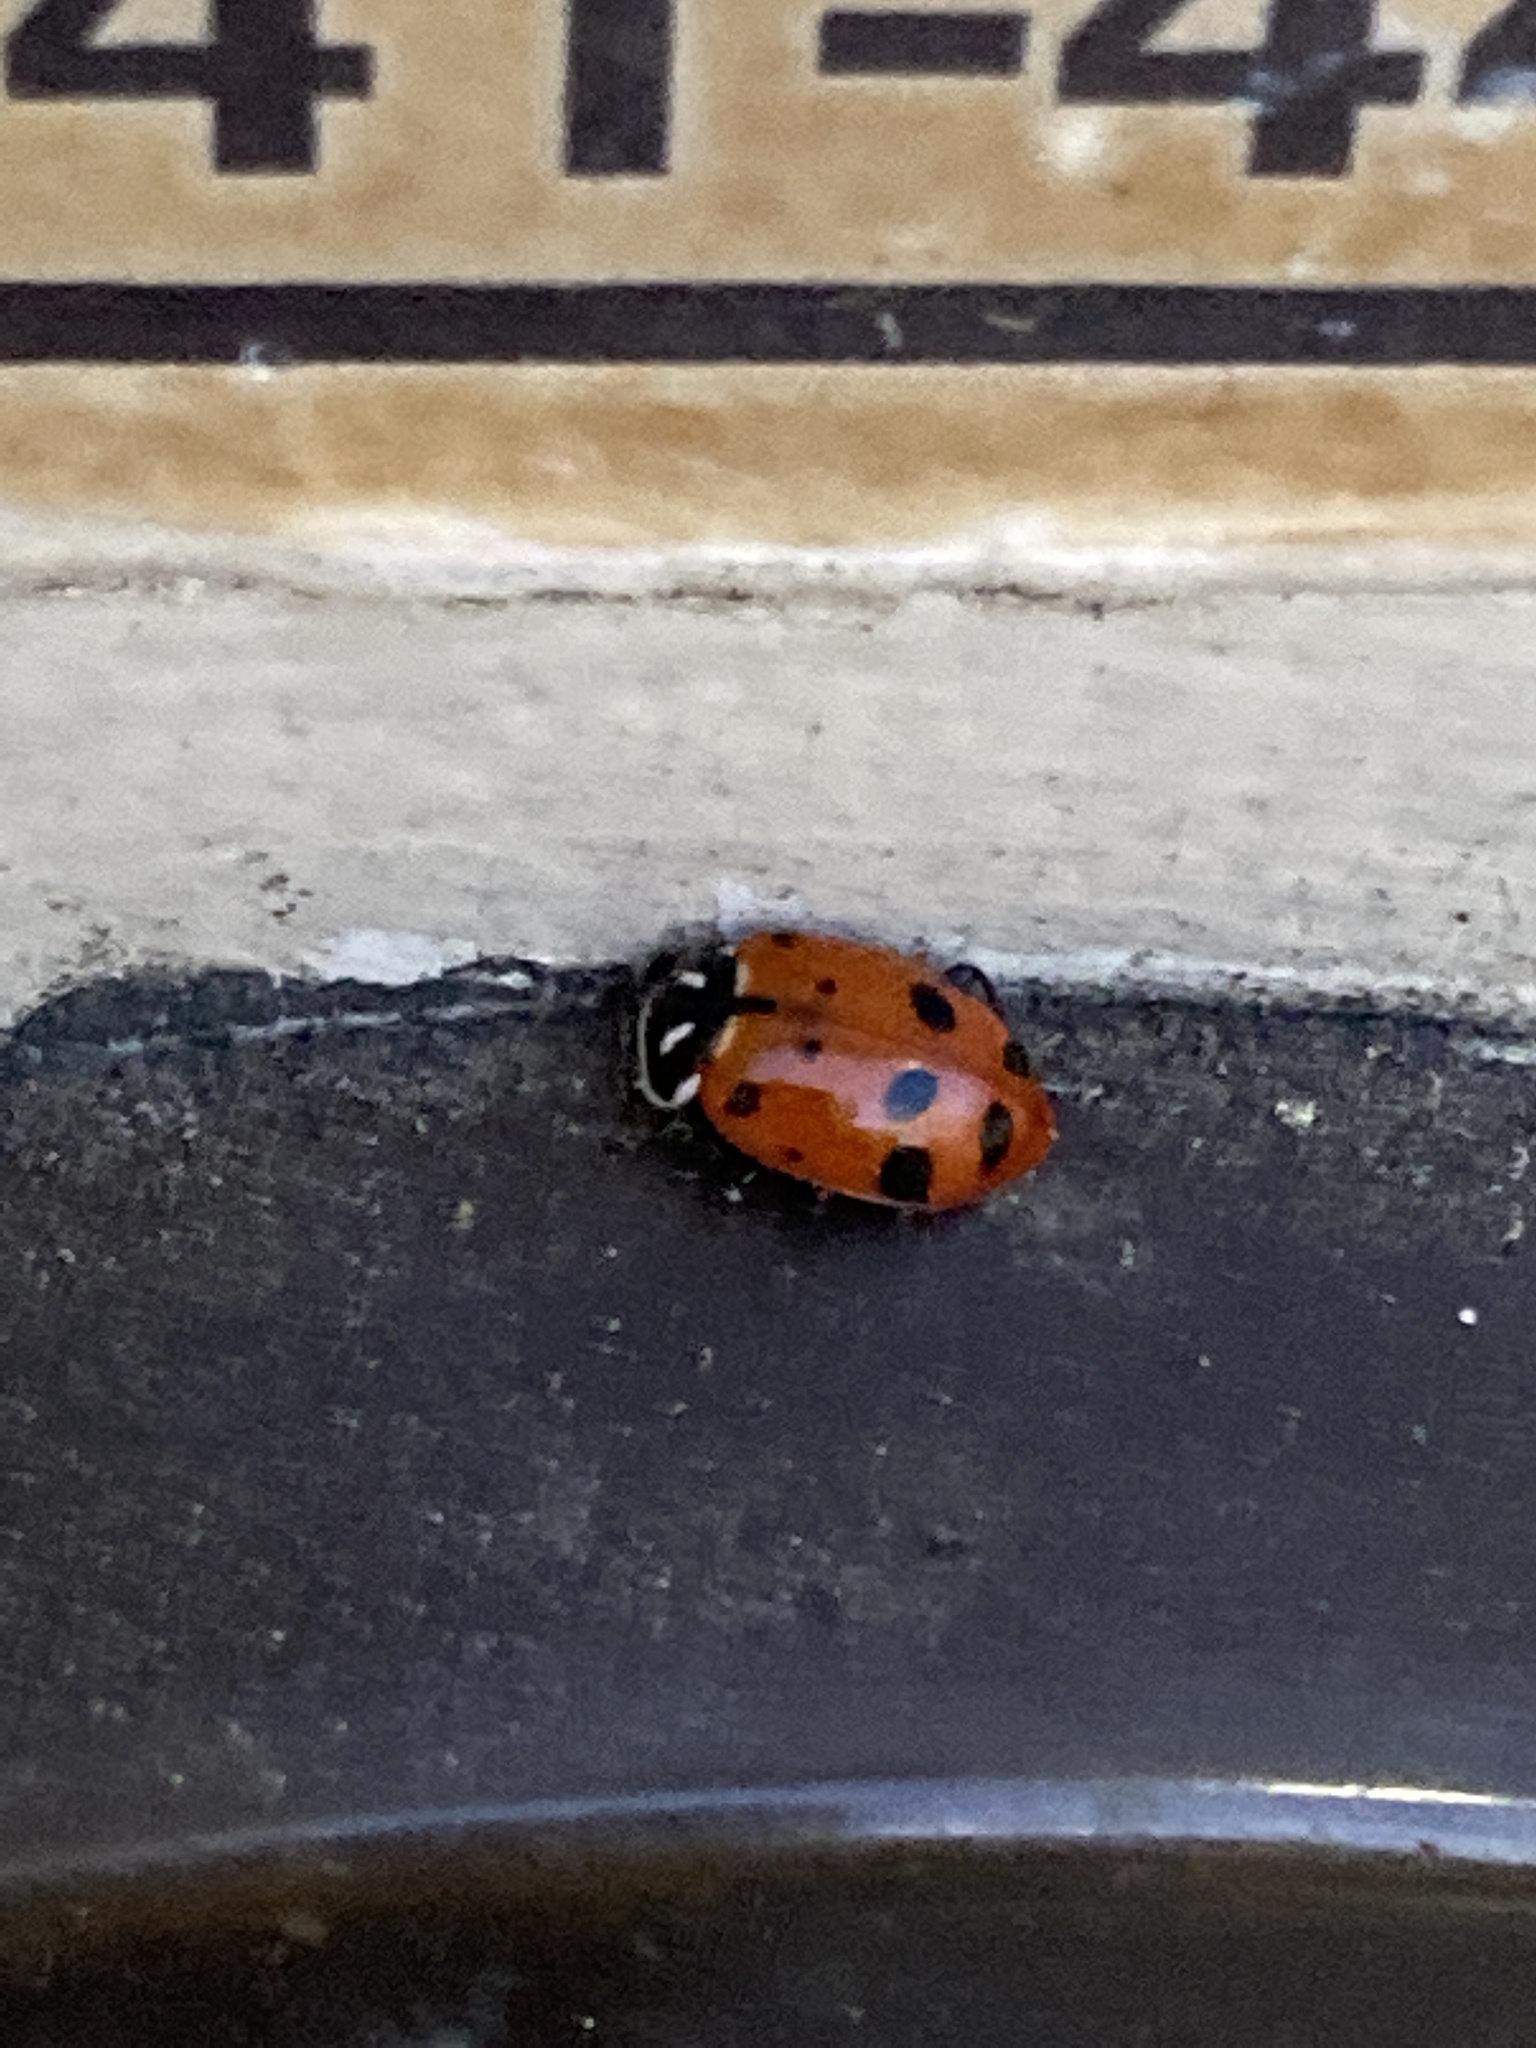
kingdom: Animalia
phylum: Arthropoda
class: Insecta
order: Coleoptera
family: Coccinellidae
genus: Hippodamia
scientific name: Hippodamia convergens
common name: Convergent lady beetle
